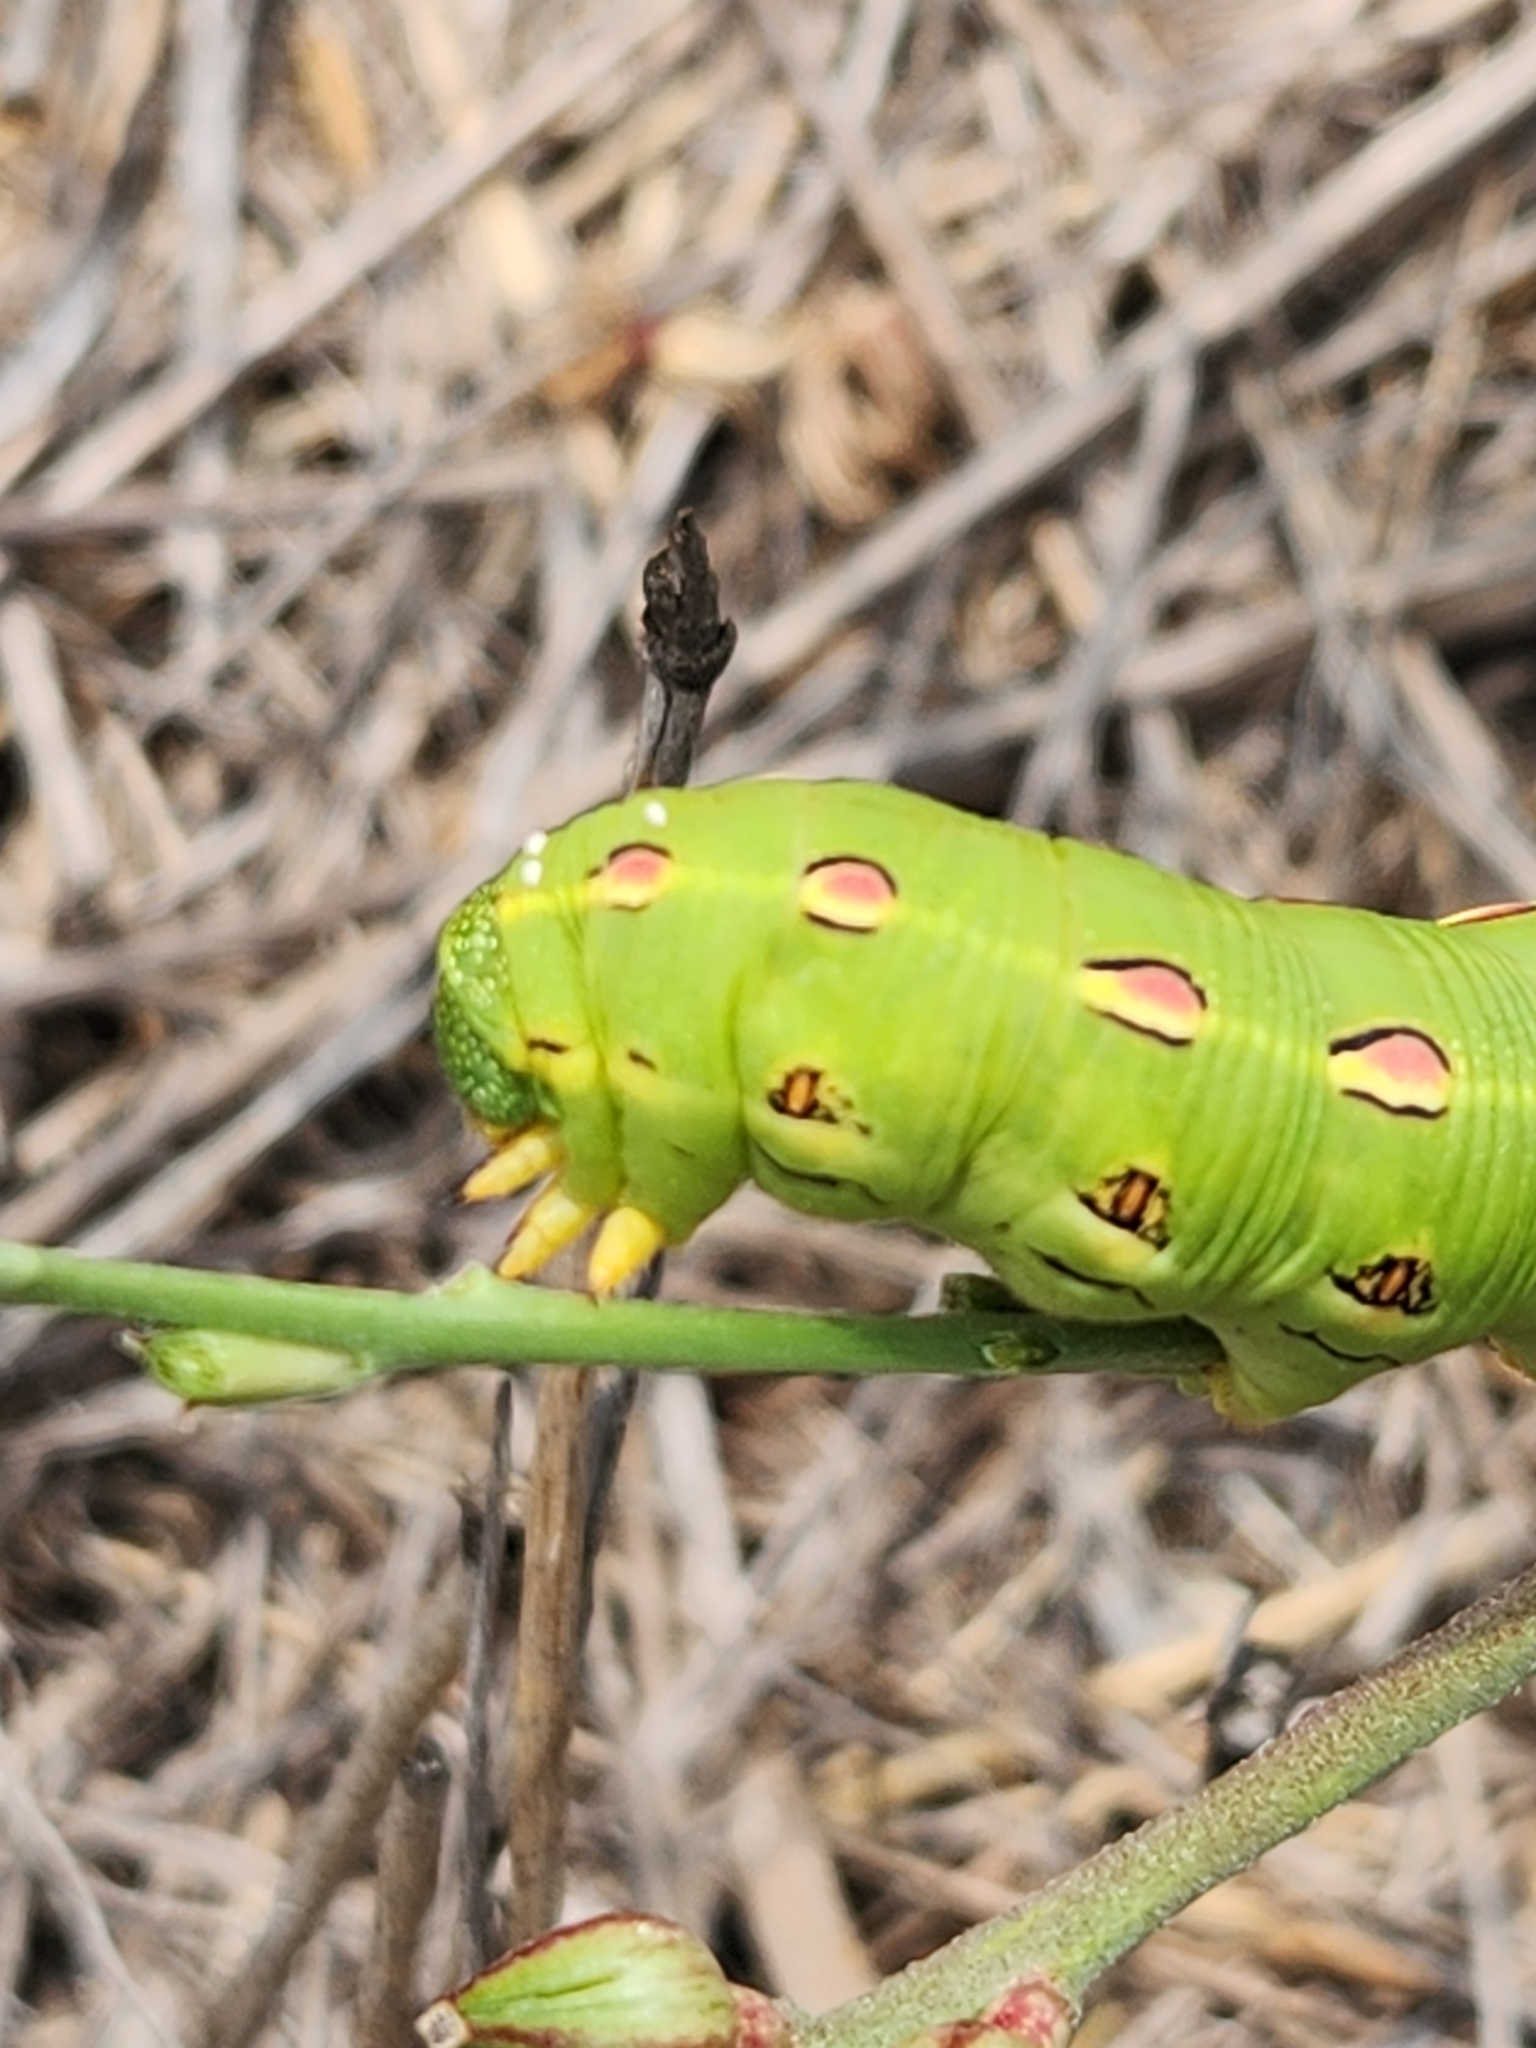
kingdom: Animalia
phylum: Arthropoda
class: Insecta
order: Lepidoptera
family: Sphingidae
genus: Hyles
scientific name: Hyles lineata
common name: White-lined sphinx
